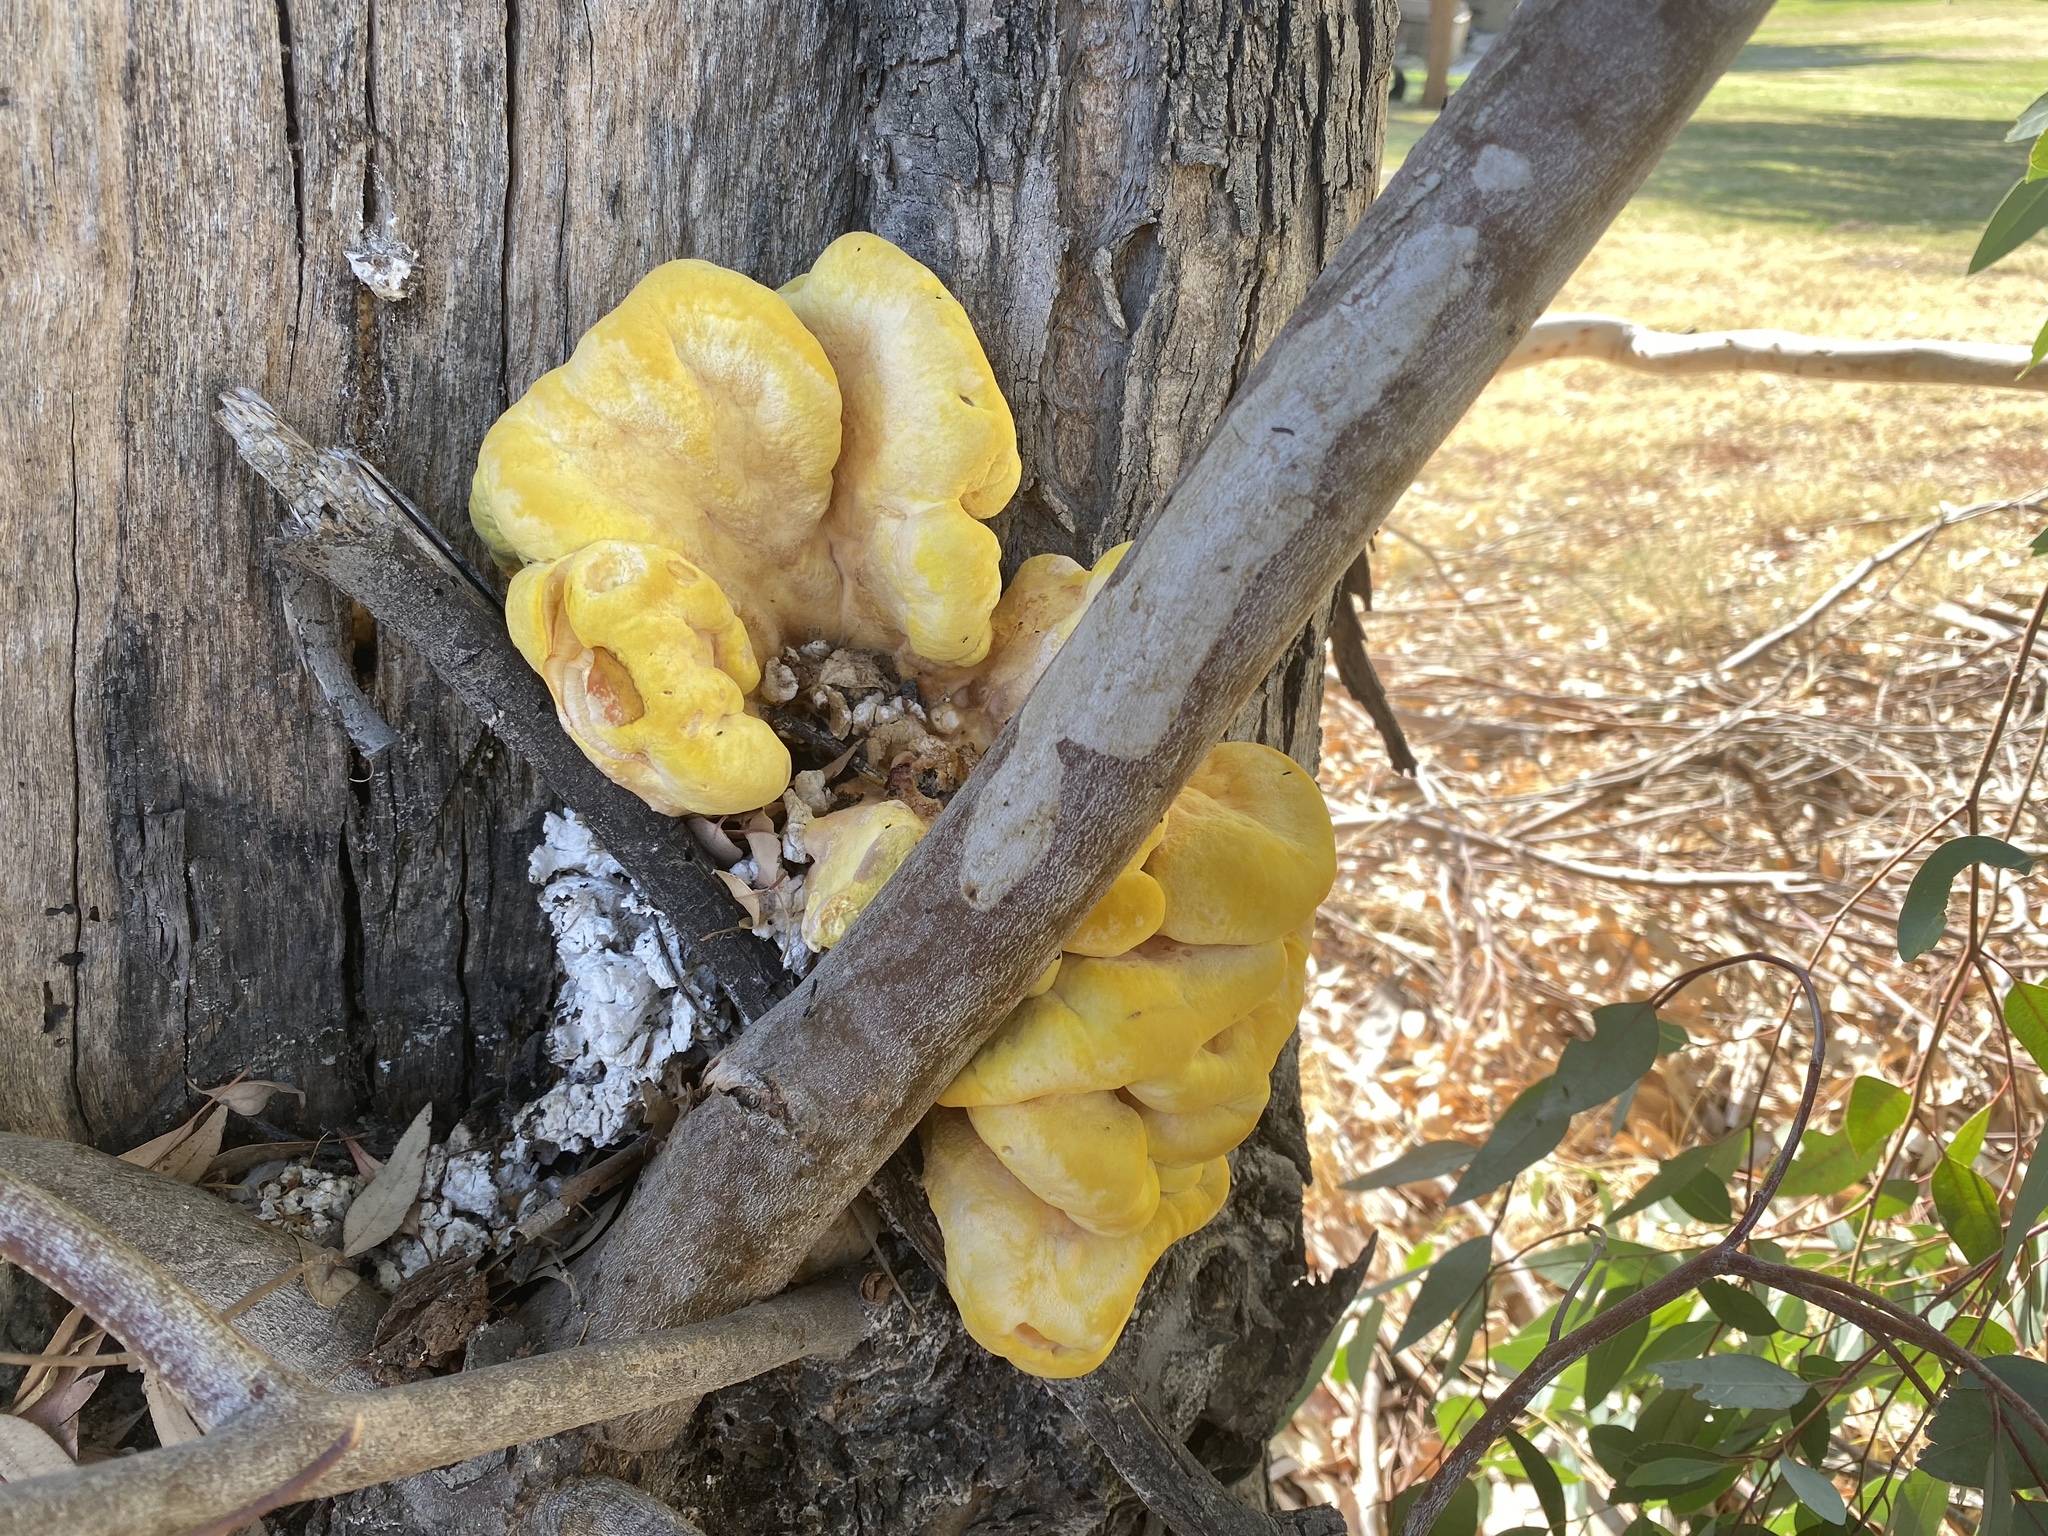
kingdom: Fungi
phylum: Basidiomycota
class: Agaricomycetes
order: Polyporales
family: Laetiporaceae
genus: Laetiporus
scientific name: Laetiporus gilbertsonii
